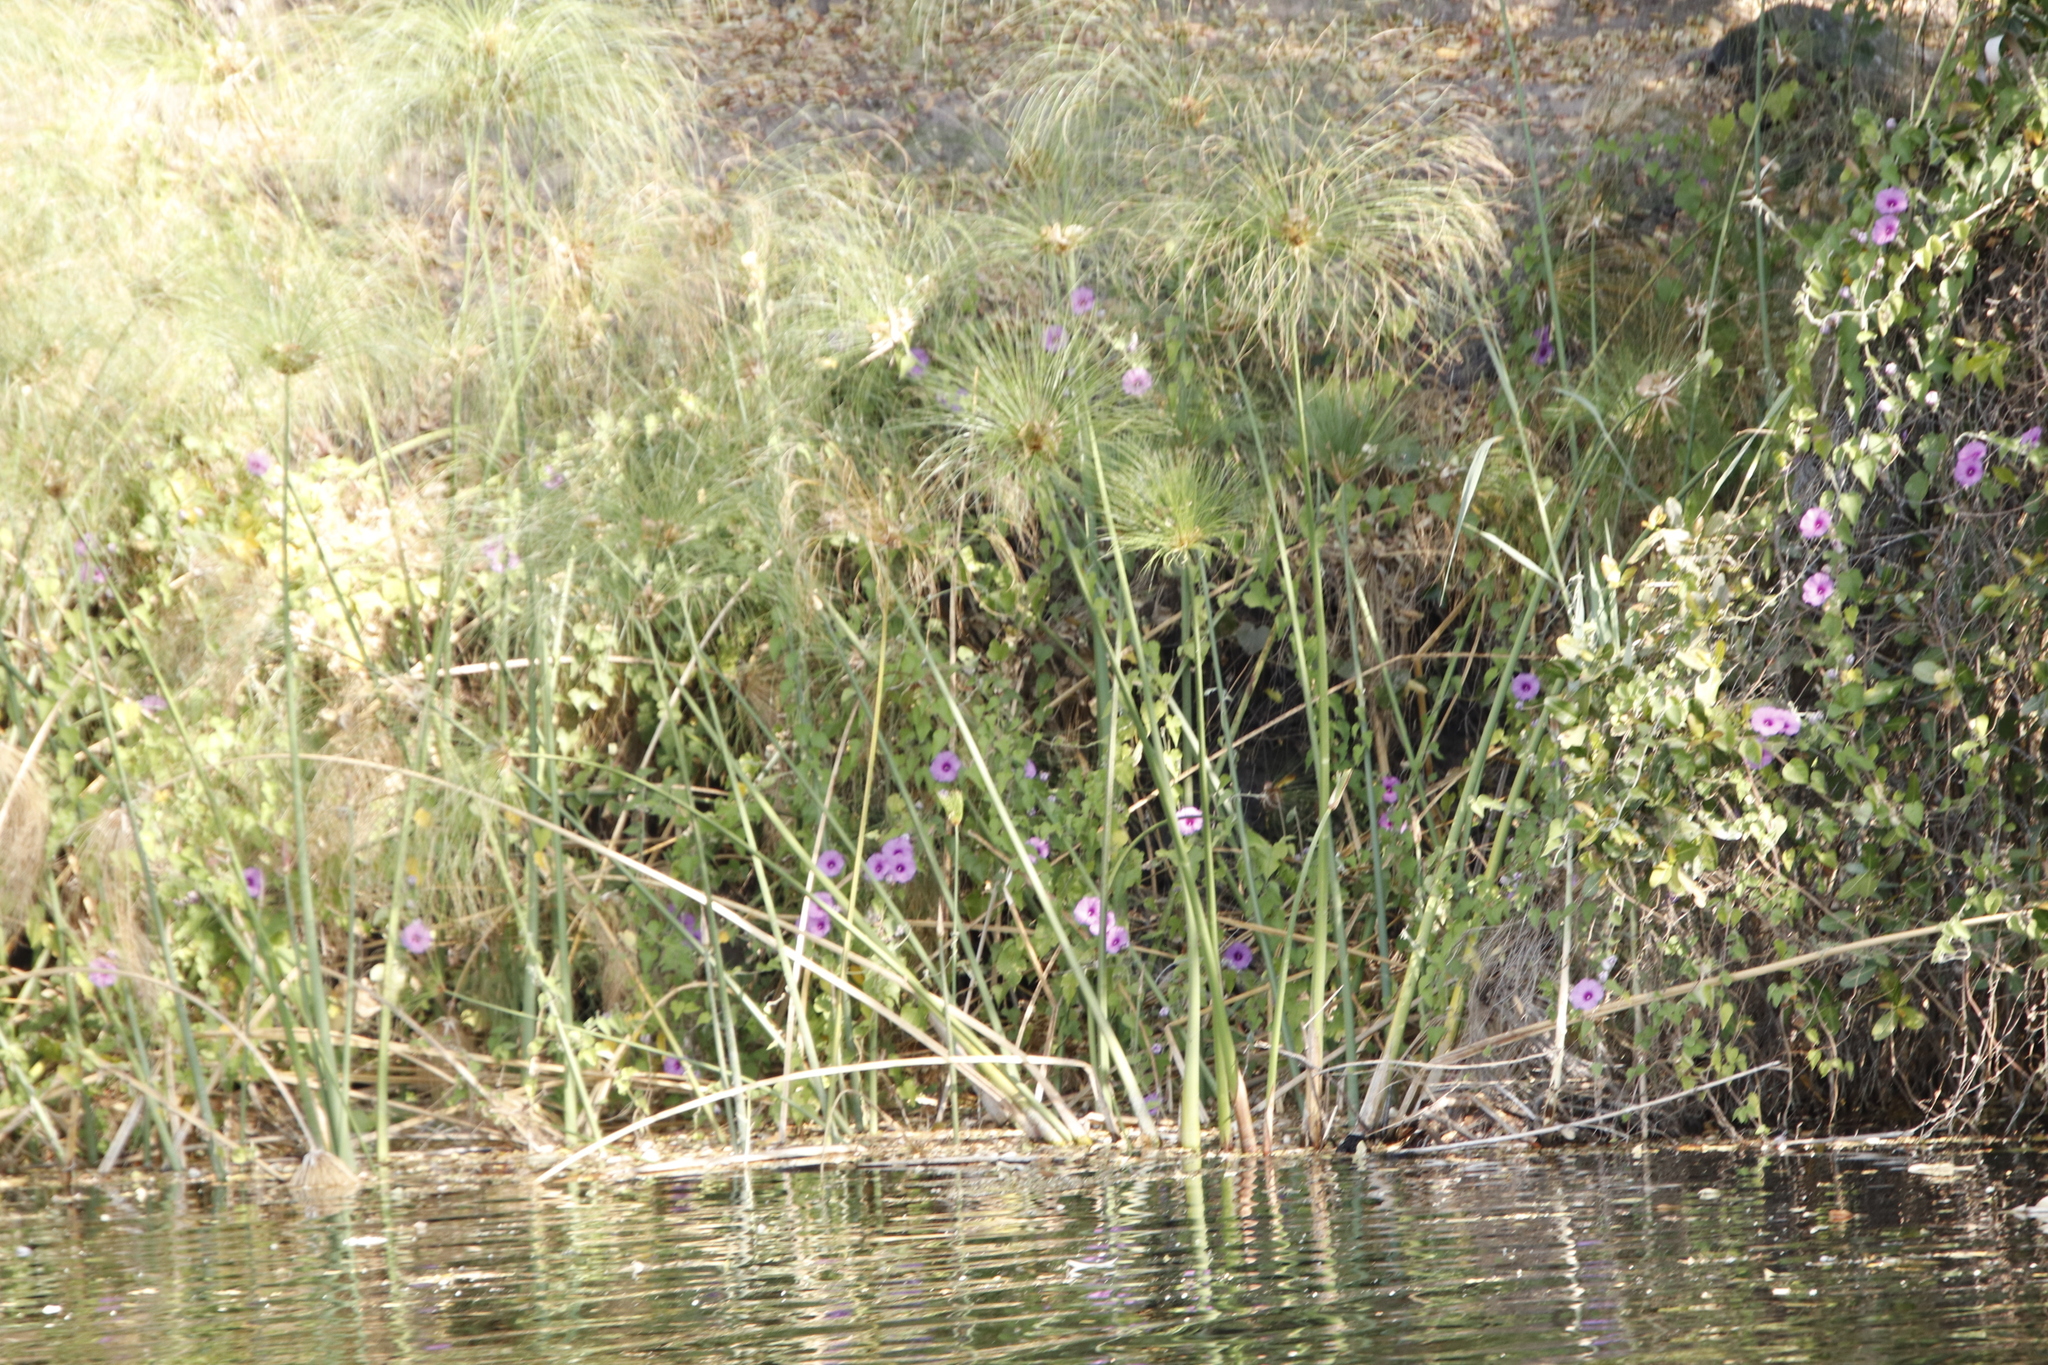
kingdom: Plantae
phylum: Tracheophyta
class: Liliopsida
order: Poales
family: Cyperaceae
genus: Cyperus
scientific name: Cyperus papyrus
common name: Papyrus
